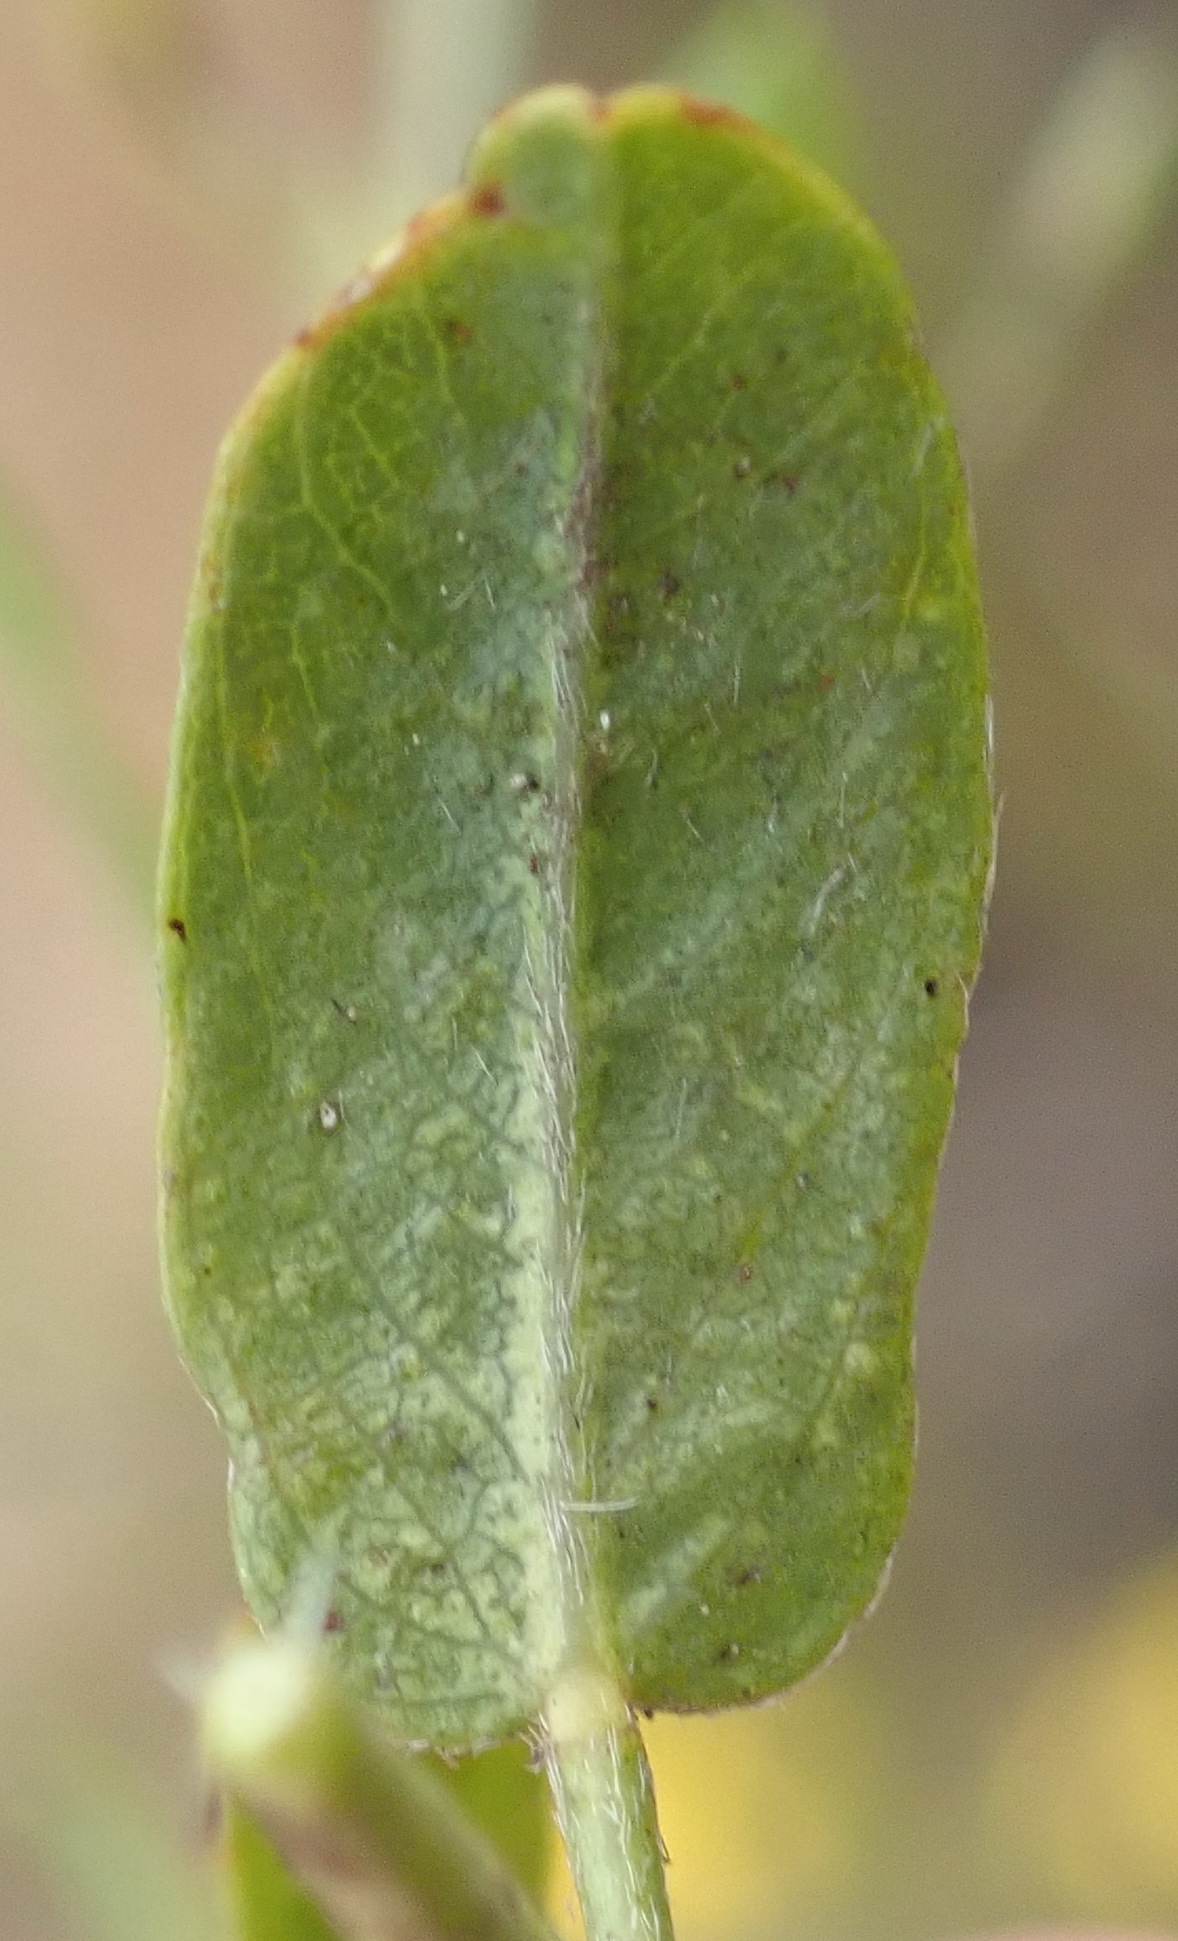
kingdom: Plantae
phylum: Tracheophyta
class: Magnoliopsida
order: Fabales
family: Fabaceae
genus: Psoralea
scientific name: Psoralea plauta
